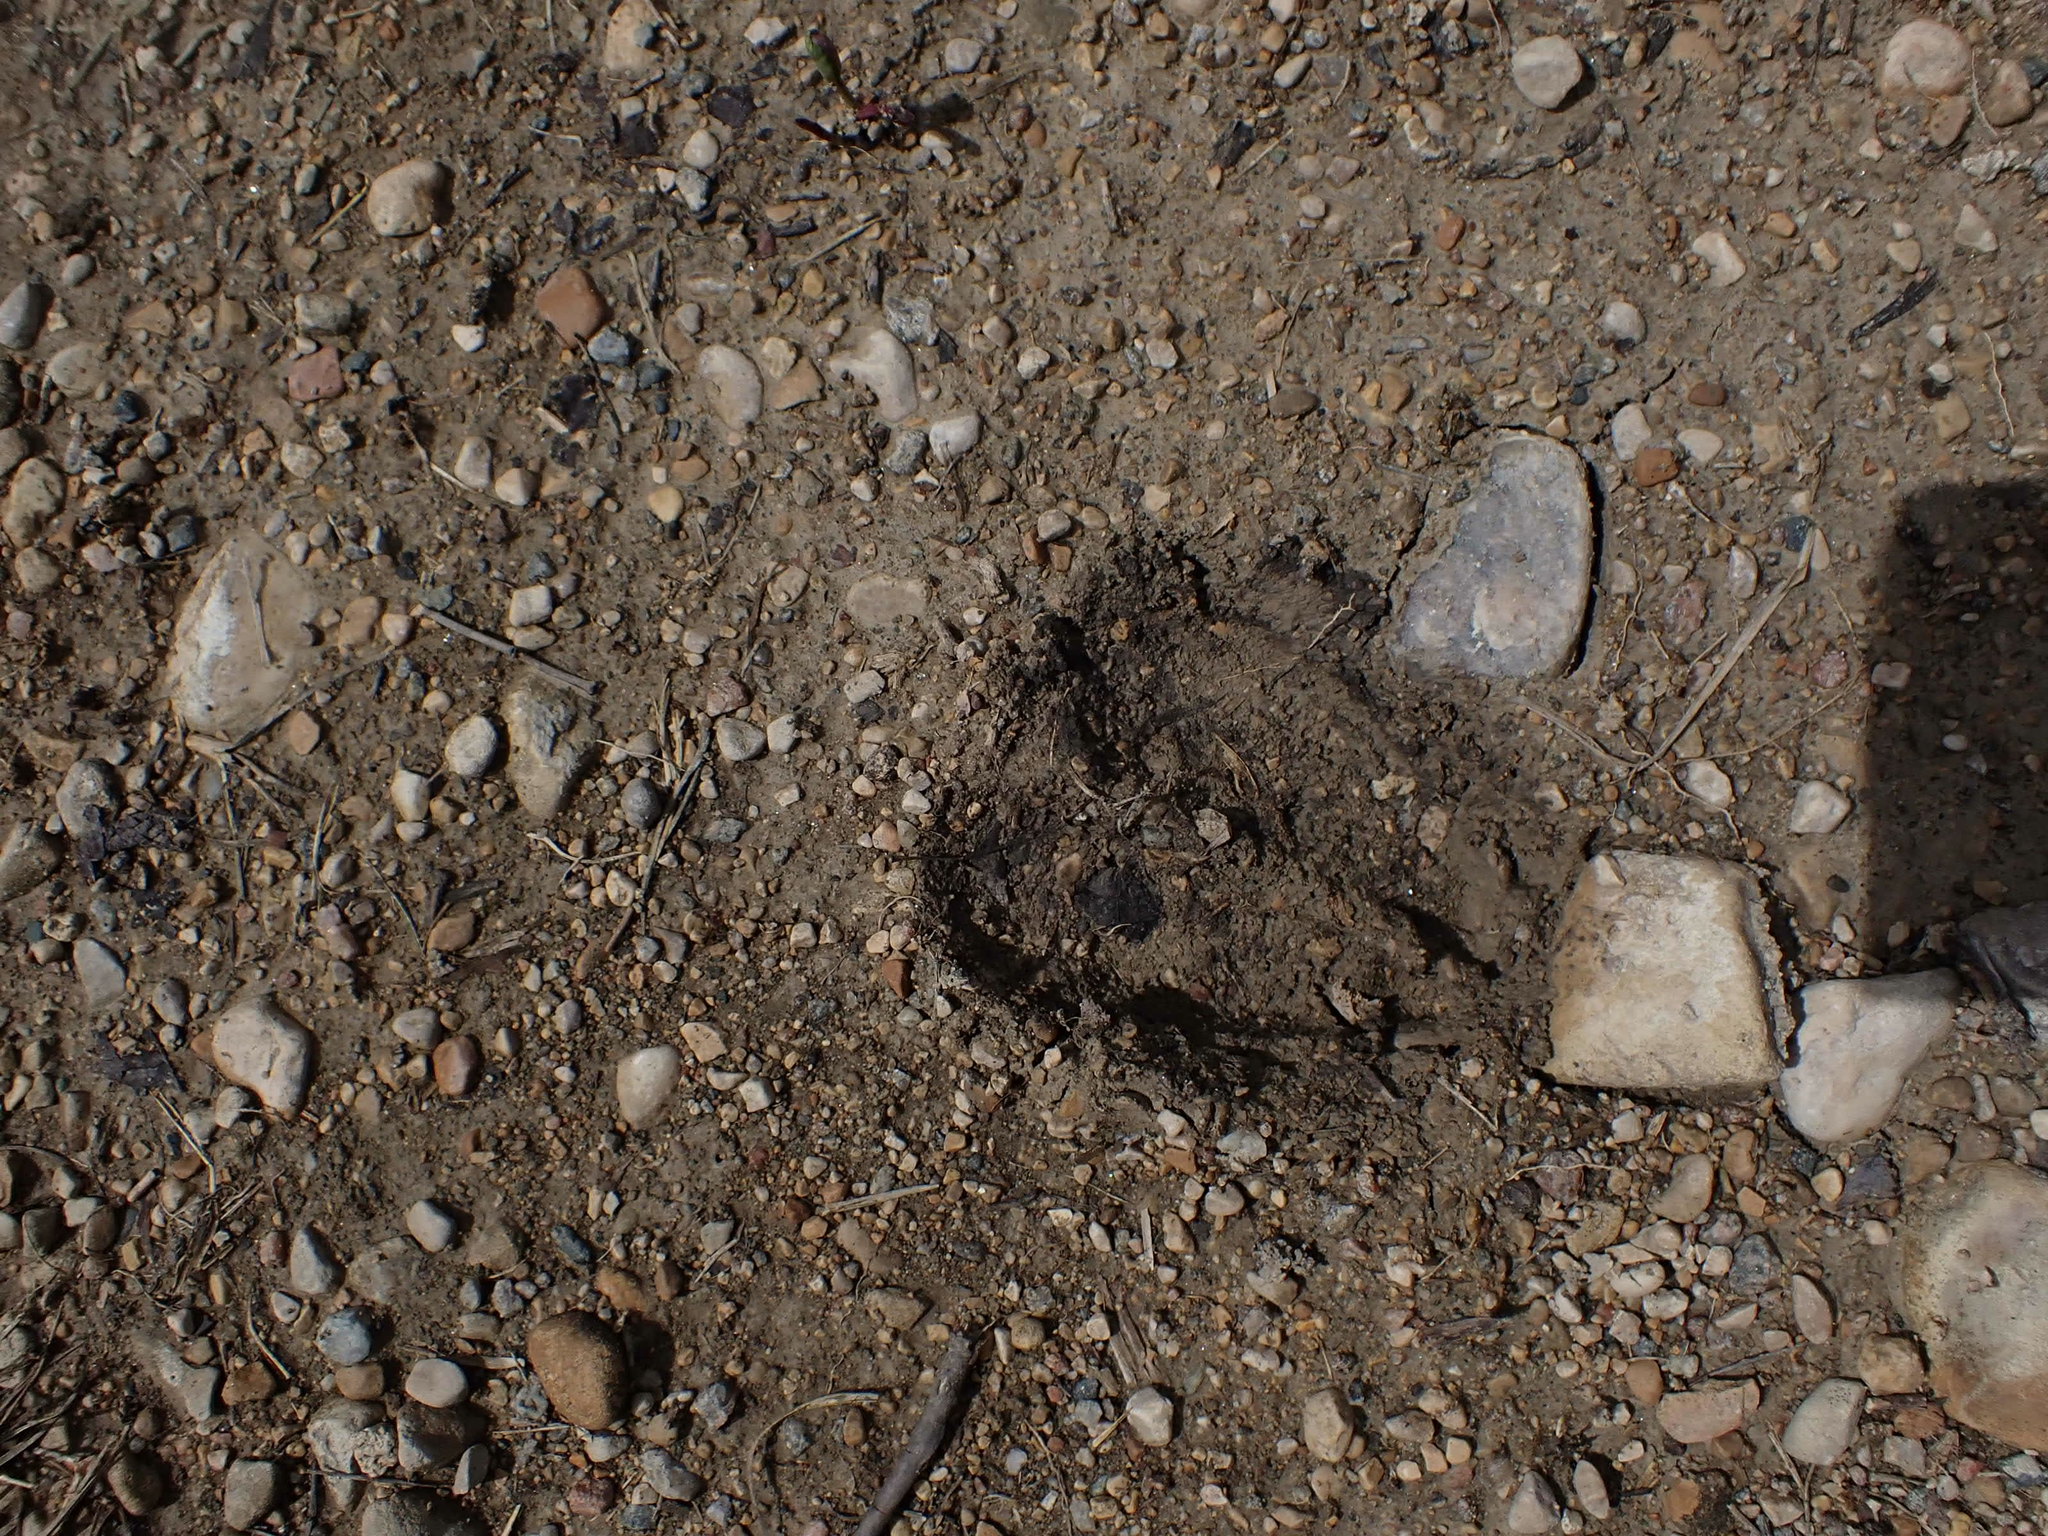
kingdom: Animalia
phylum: Chordata
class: Mammalia
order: Artiodactyla
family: Cervidae
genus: Odocoileus
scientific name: Odocoileus virginianus
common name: White-tailed deer
